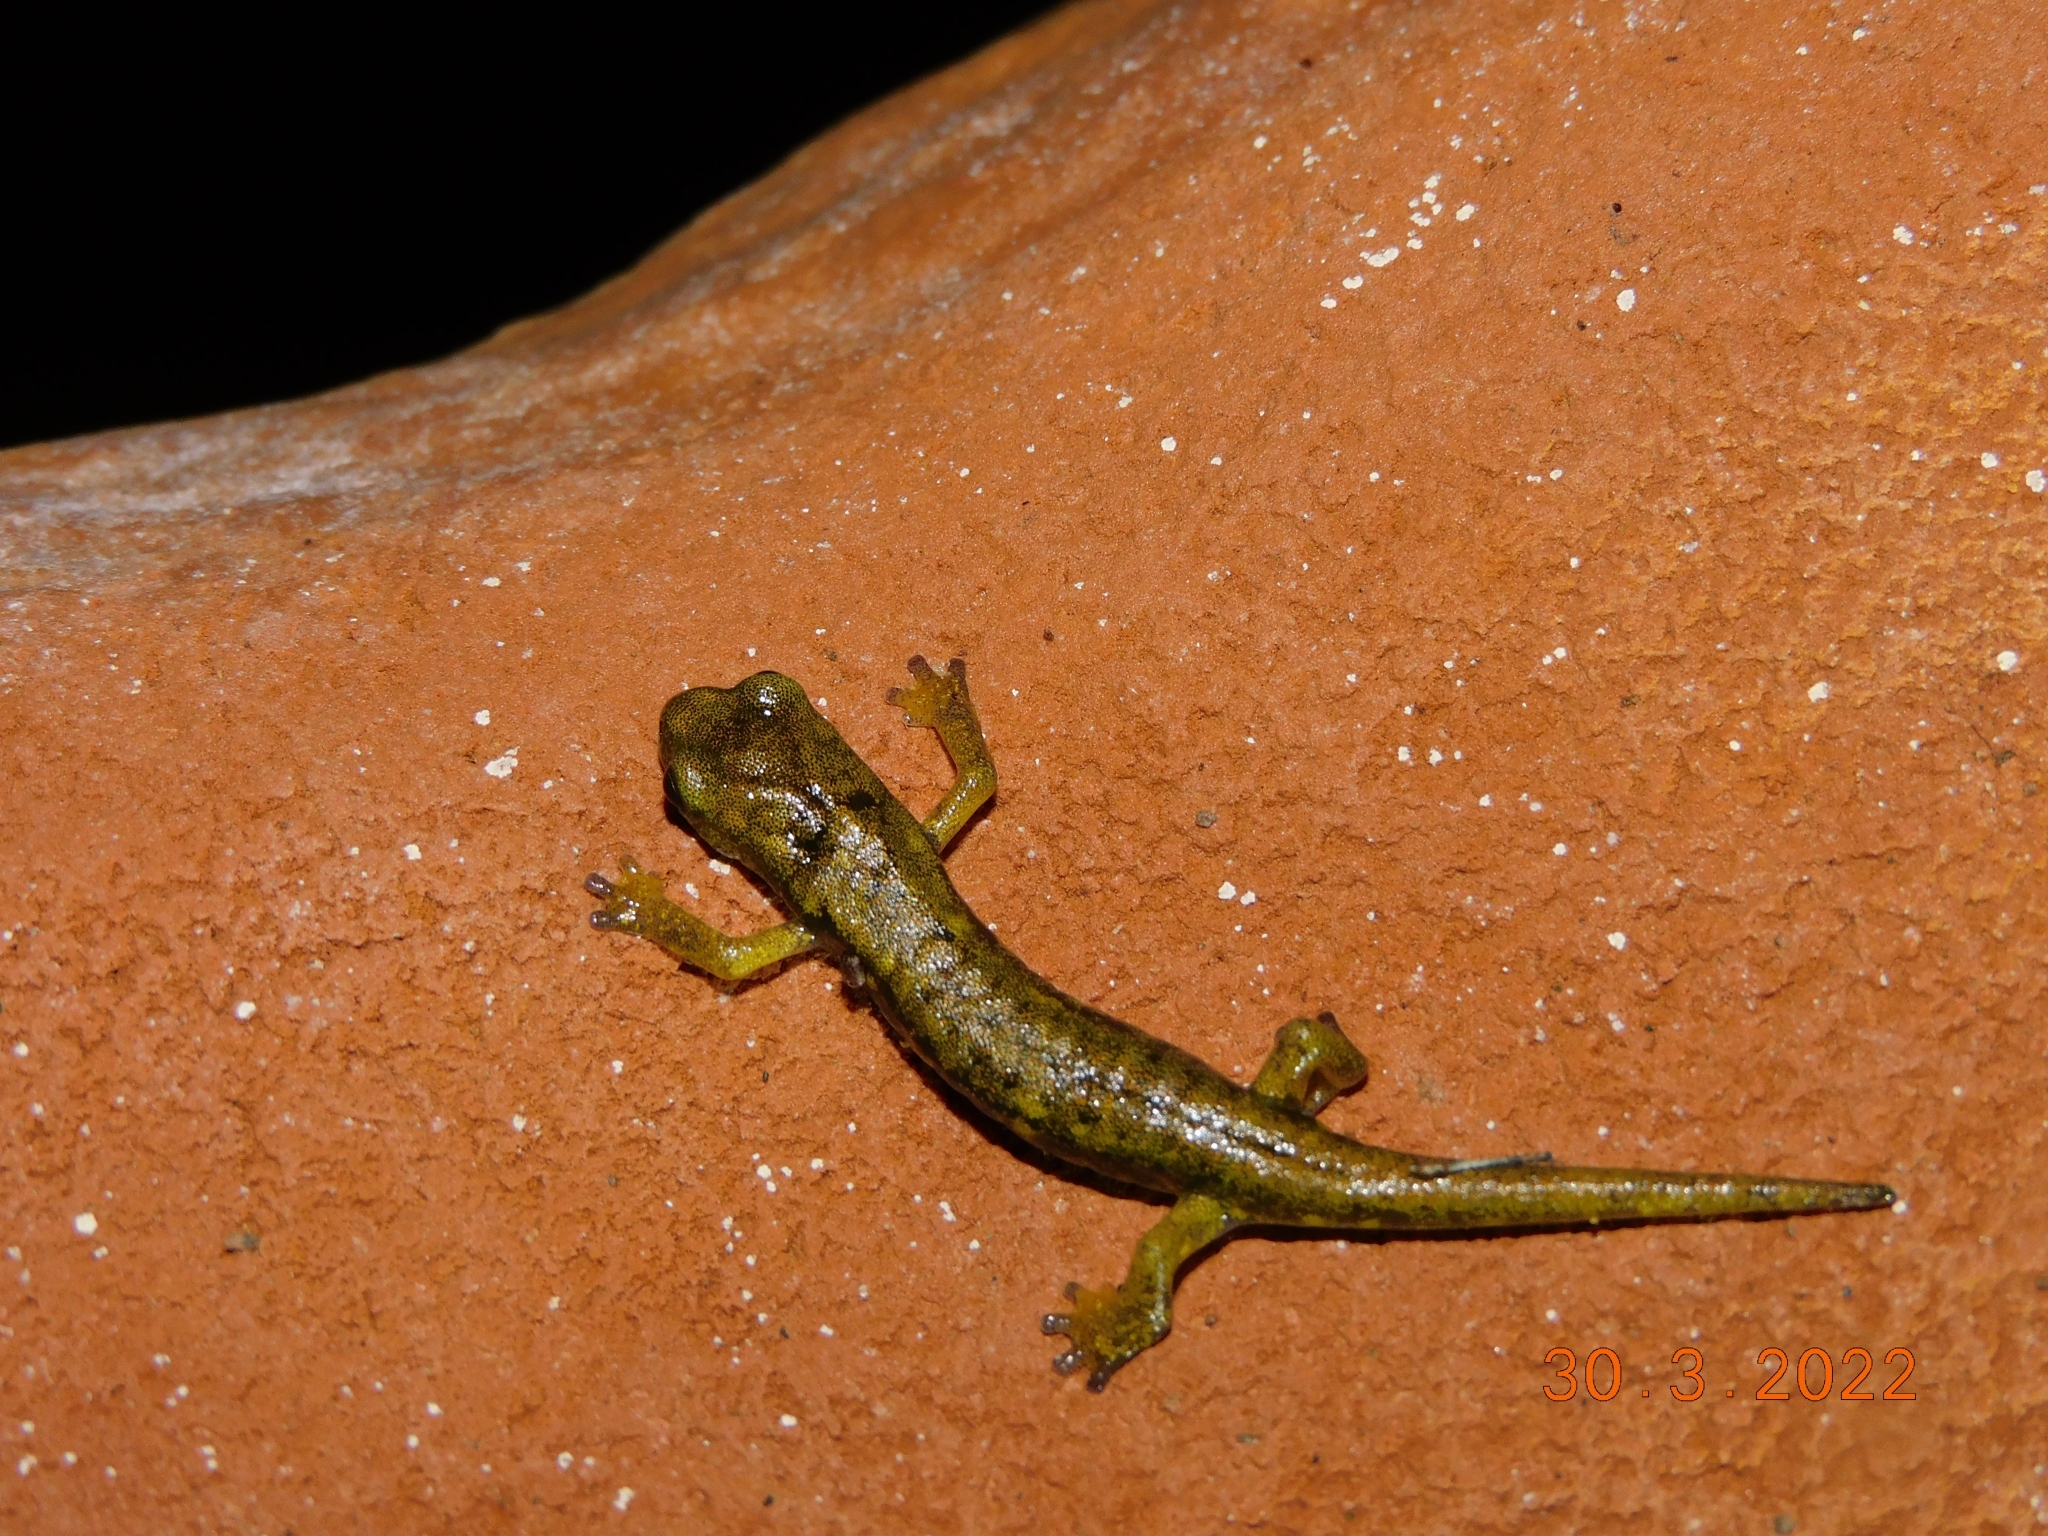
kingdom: Animalia
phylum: Chordata
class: Amphibia
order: Caudata
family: Plethodontidae
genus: Speleomantes
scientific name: Speleomantes imperialis
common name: Imperial cave salamander
